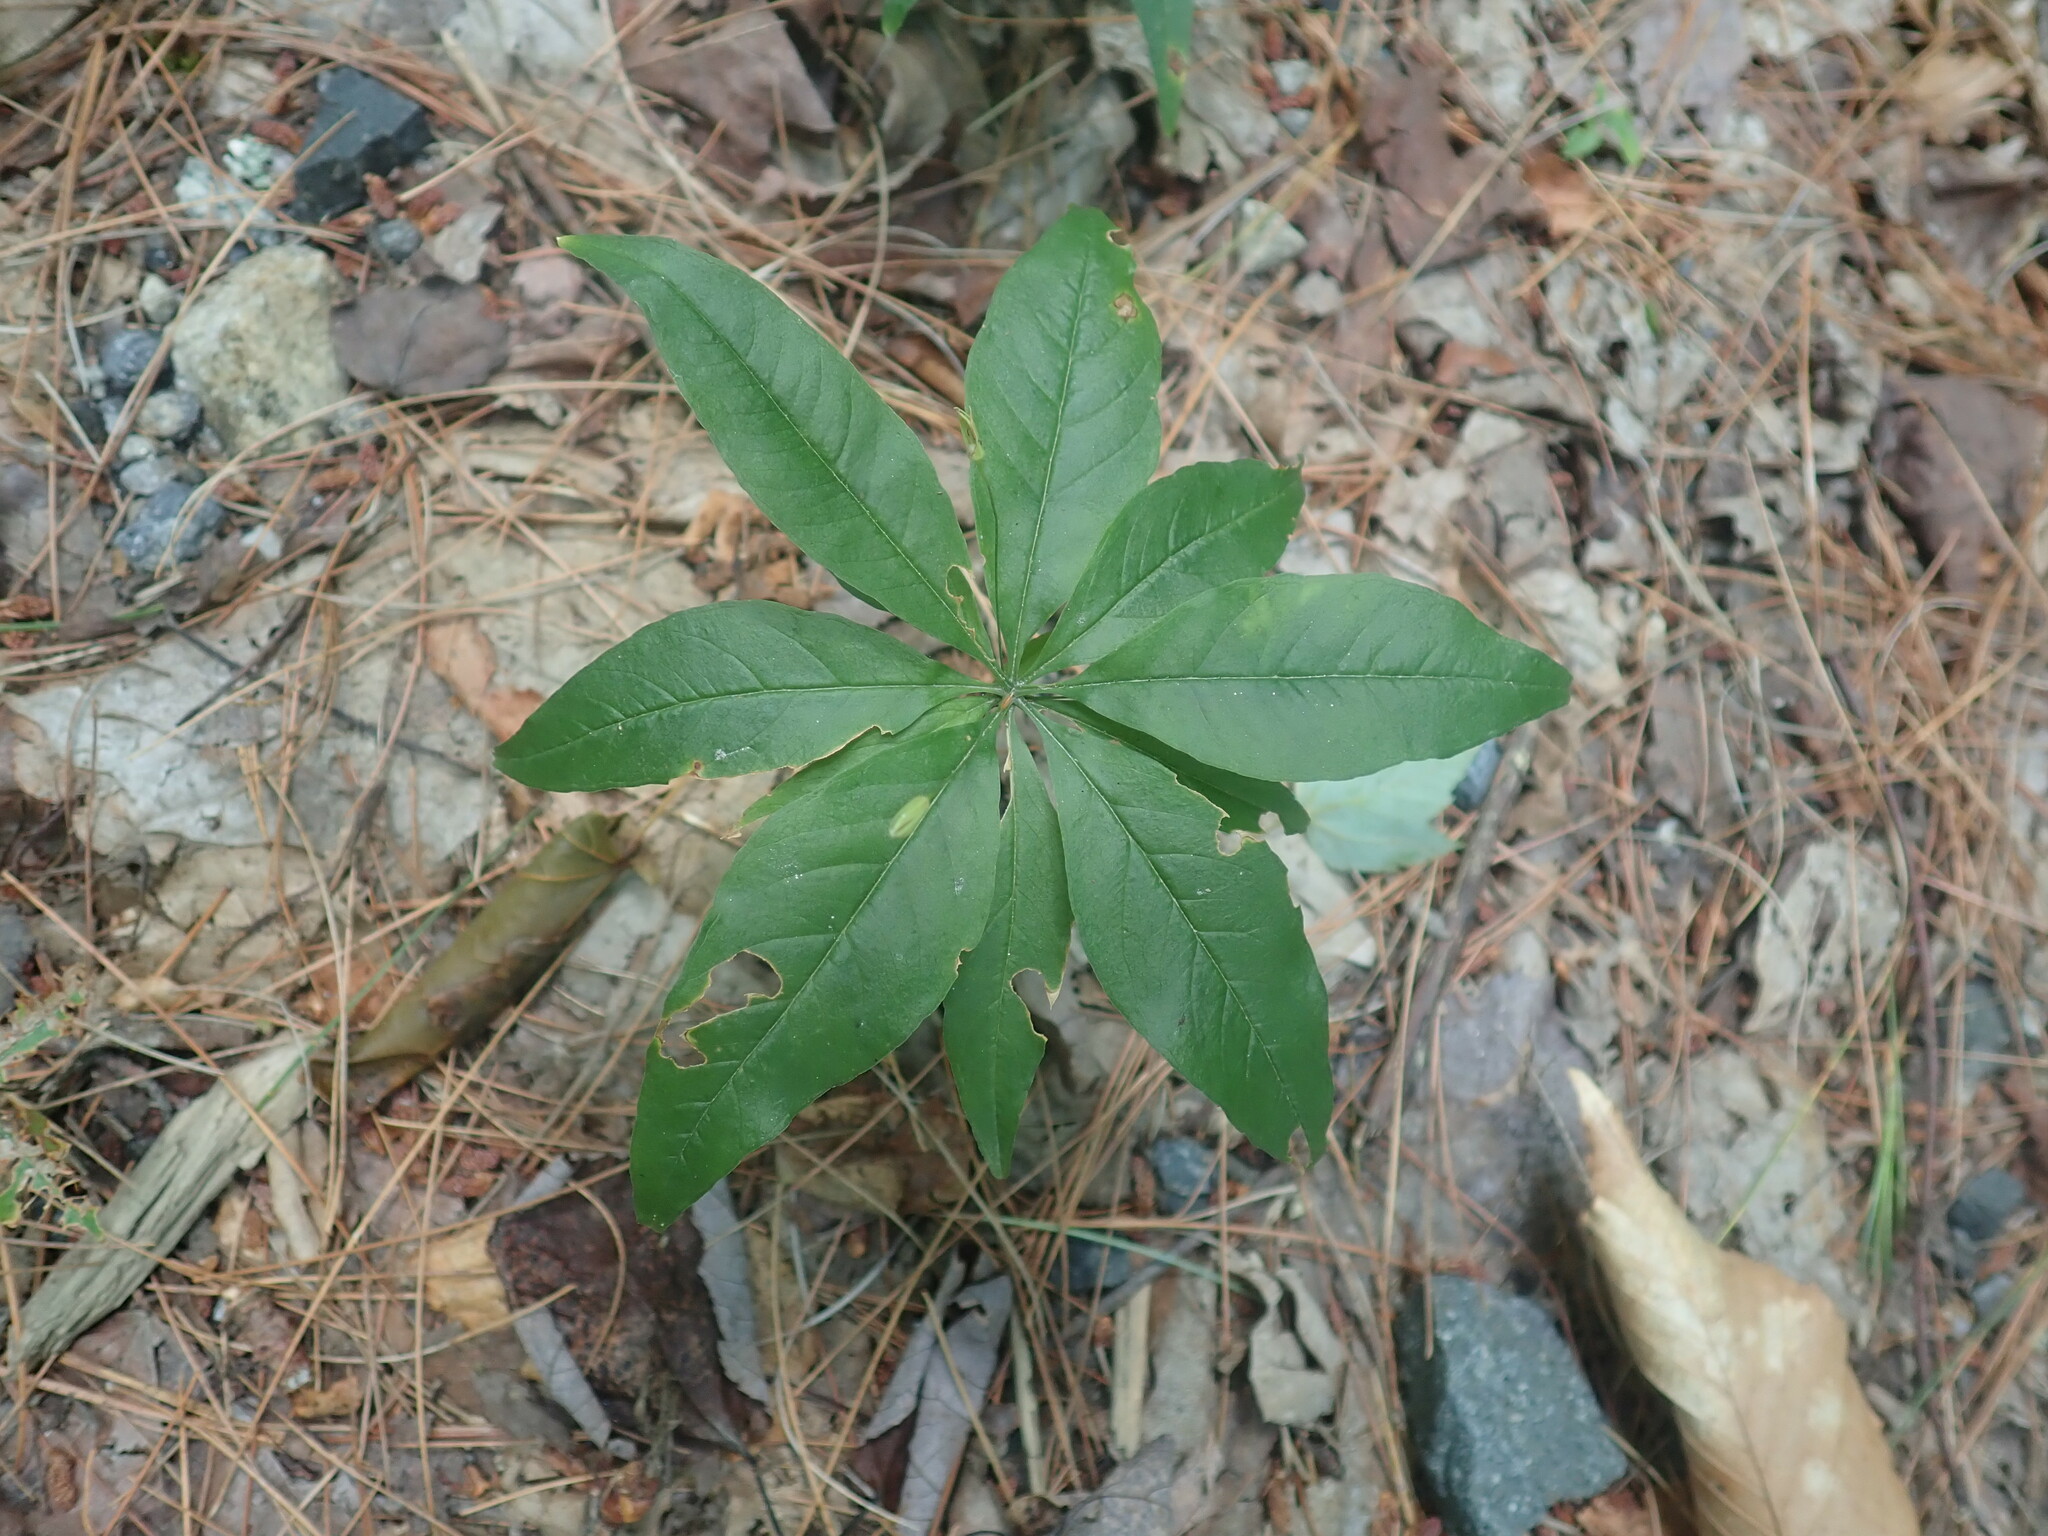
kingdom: Plantae
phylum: Tracheophyta
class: Magnoliopsida
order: Ericales
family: Primulaceae
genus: Lysimachia
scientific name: Lysimachia borealis
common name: American starflower
